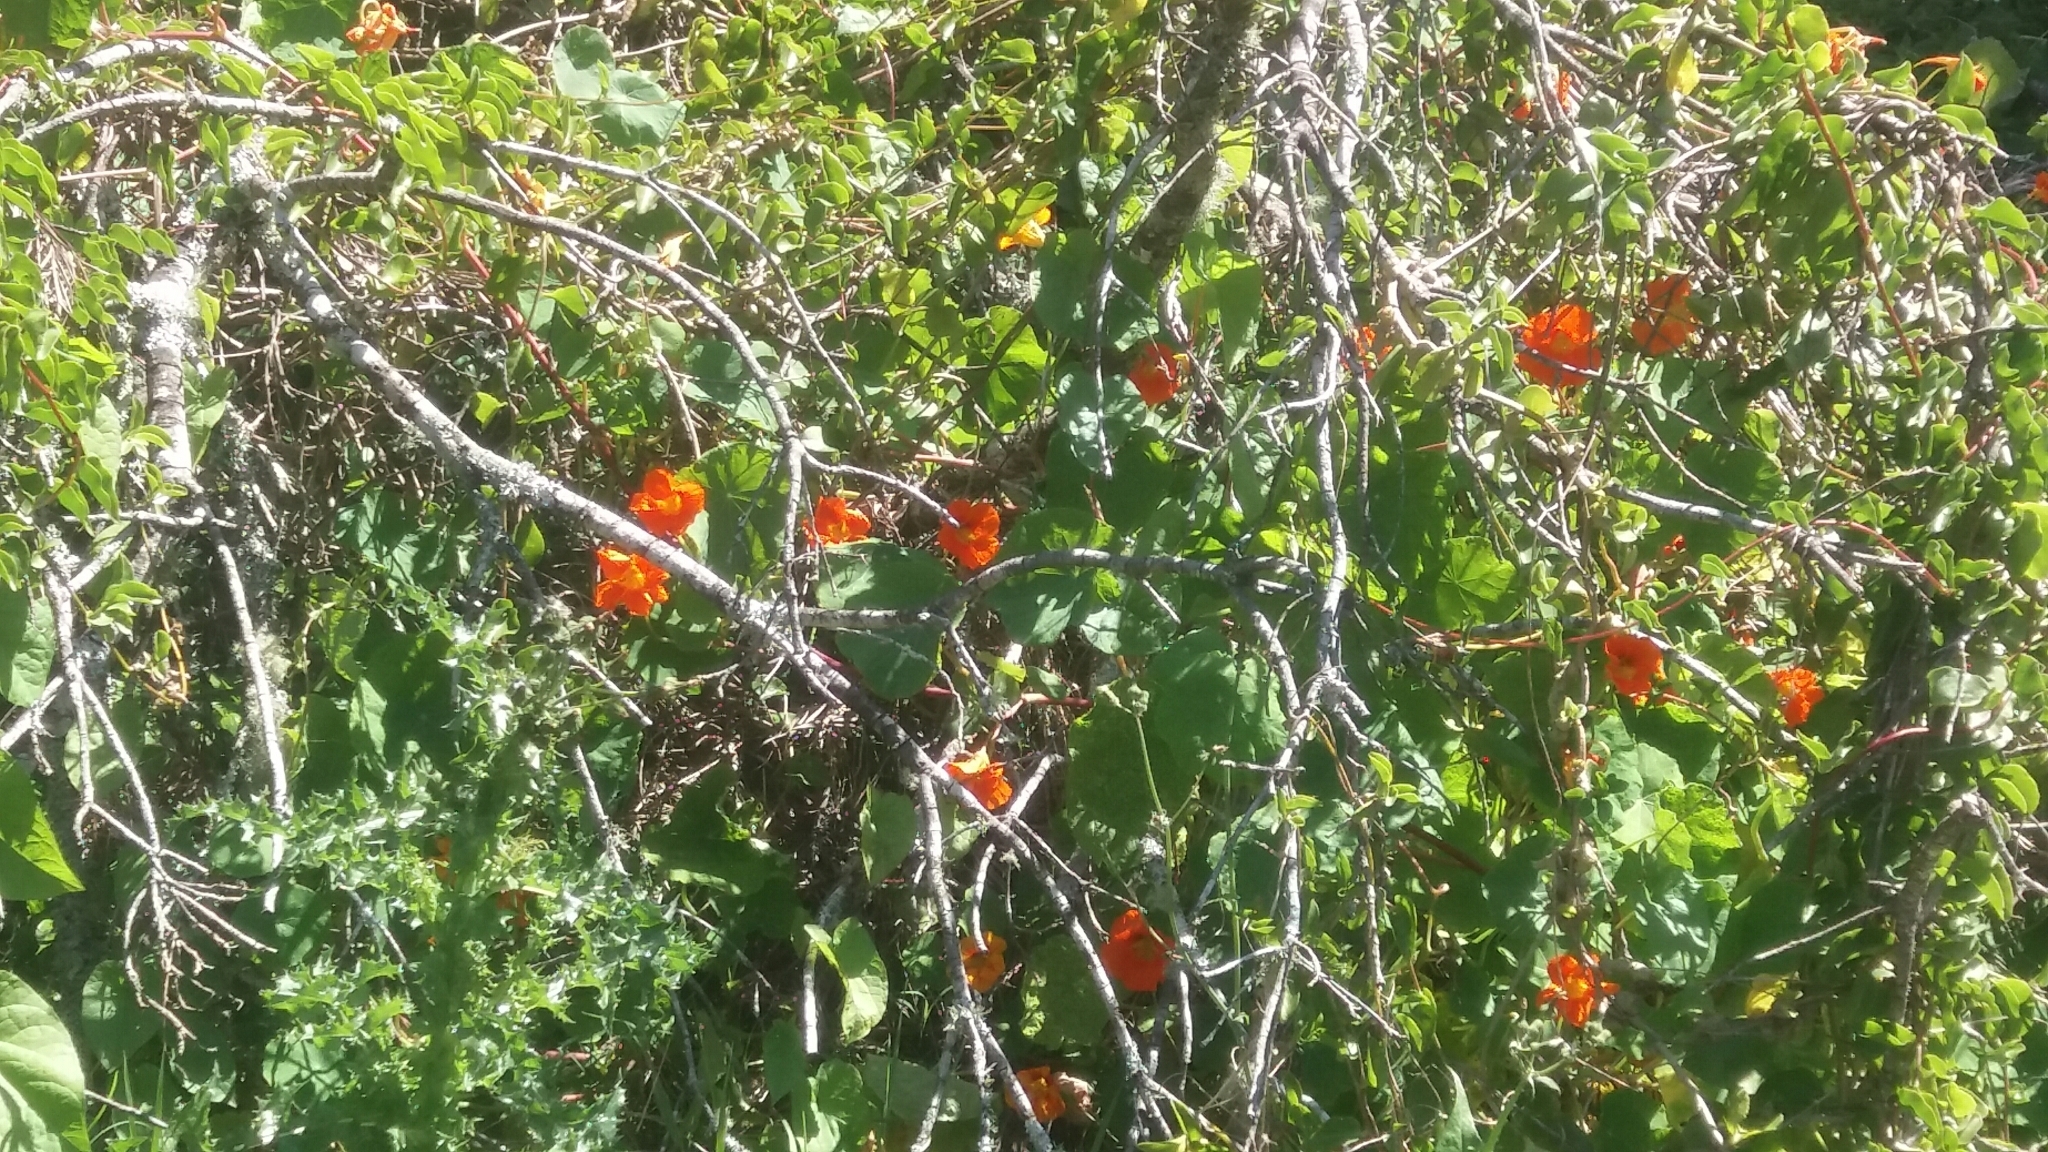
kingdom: Plantae
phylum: Tracheophyta
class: Magnoliopsida
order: Brassicales
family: Tropaeolaceae
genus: Tropaeolum
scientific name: Tropaeolum majus
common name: Nasturtium
